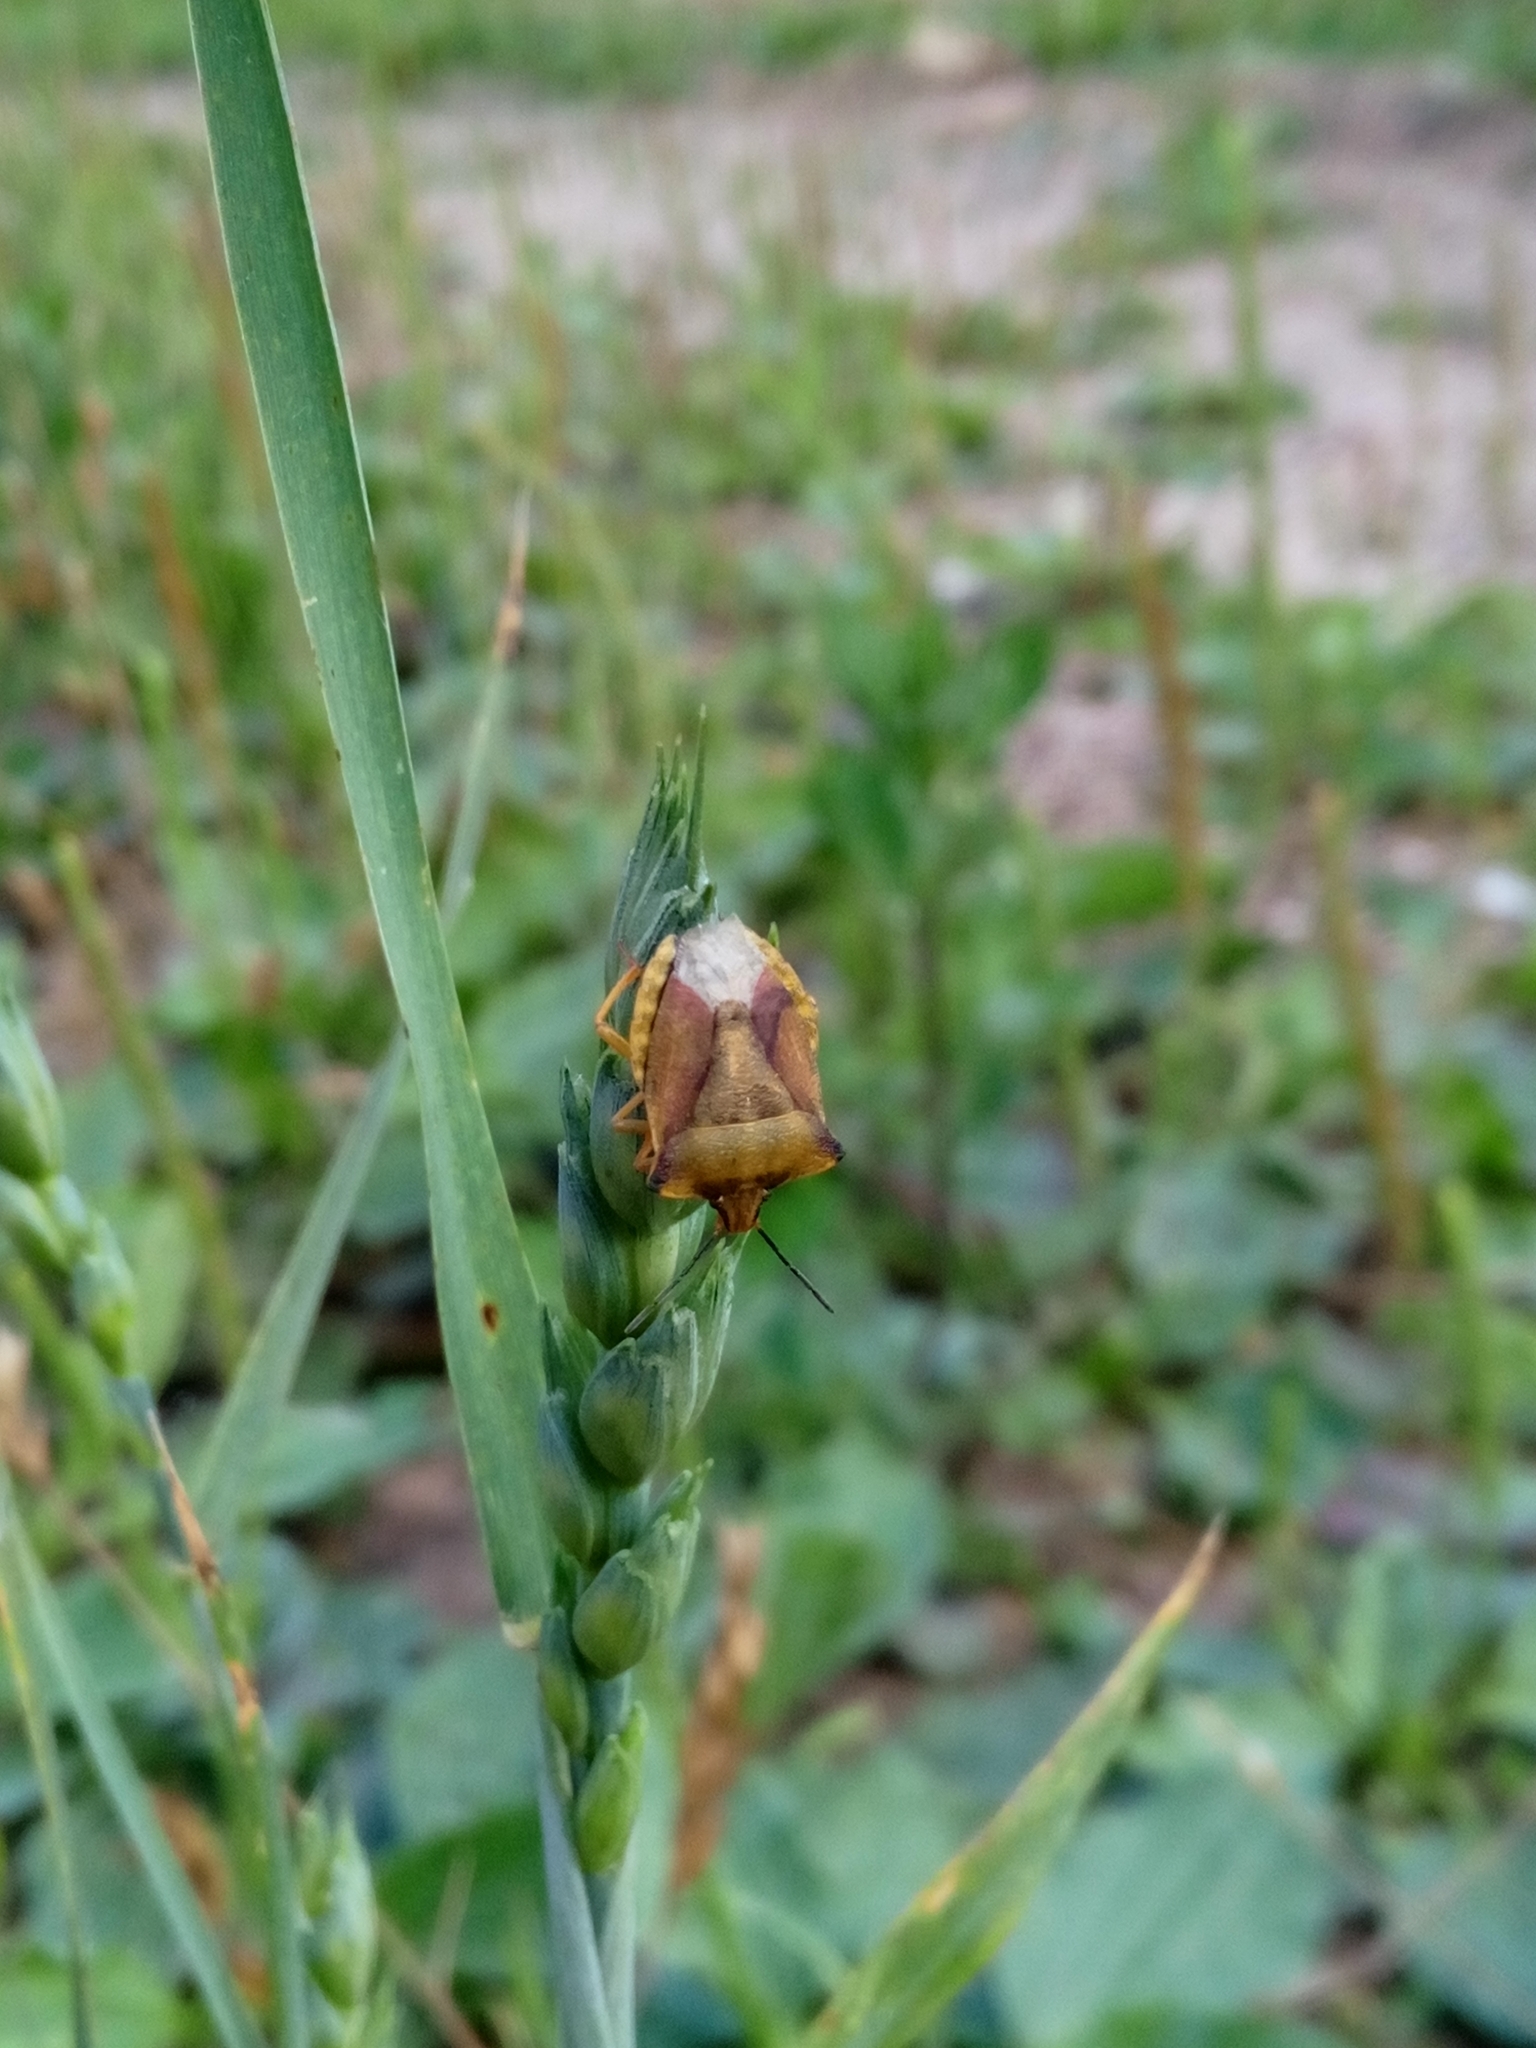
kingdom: Animalia
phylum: Arthropoda
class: Insecta
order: Hemiptera
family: Pentatomidae
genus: Carpocoris
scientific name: Carpocoris fuscispinus
